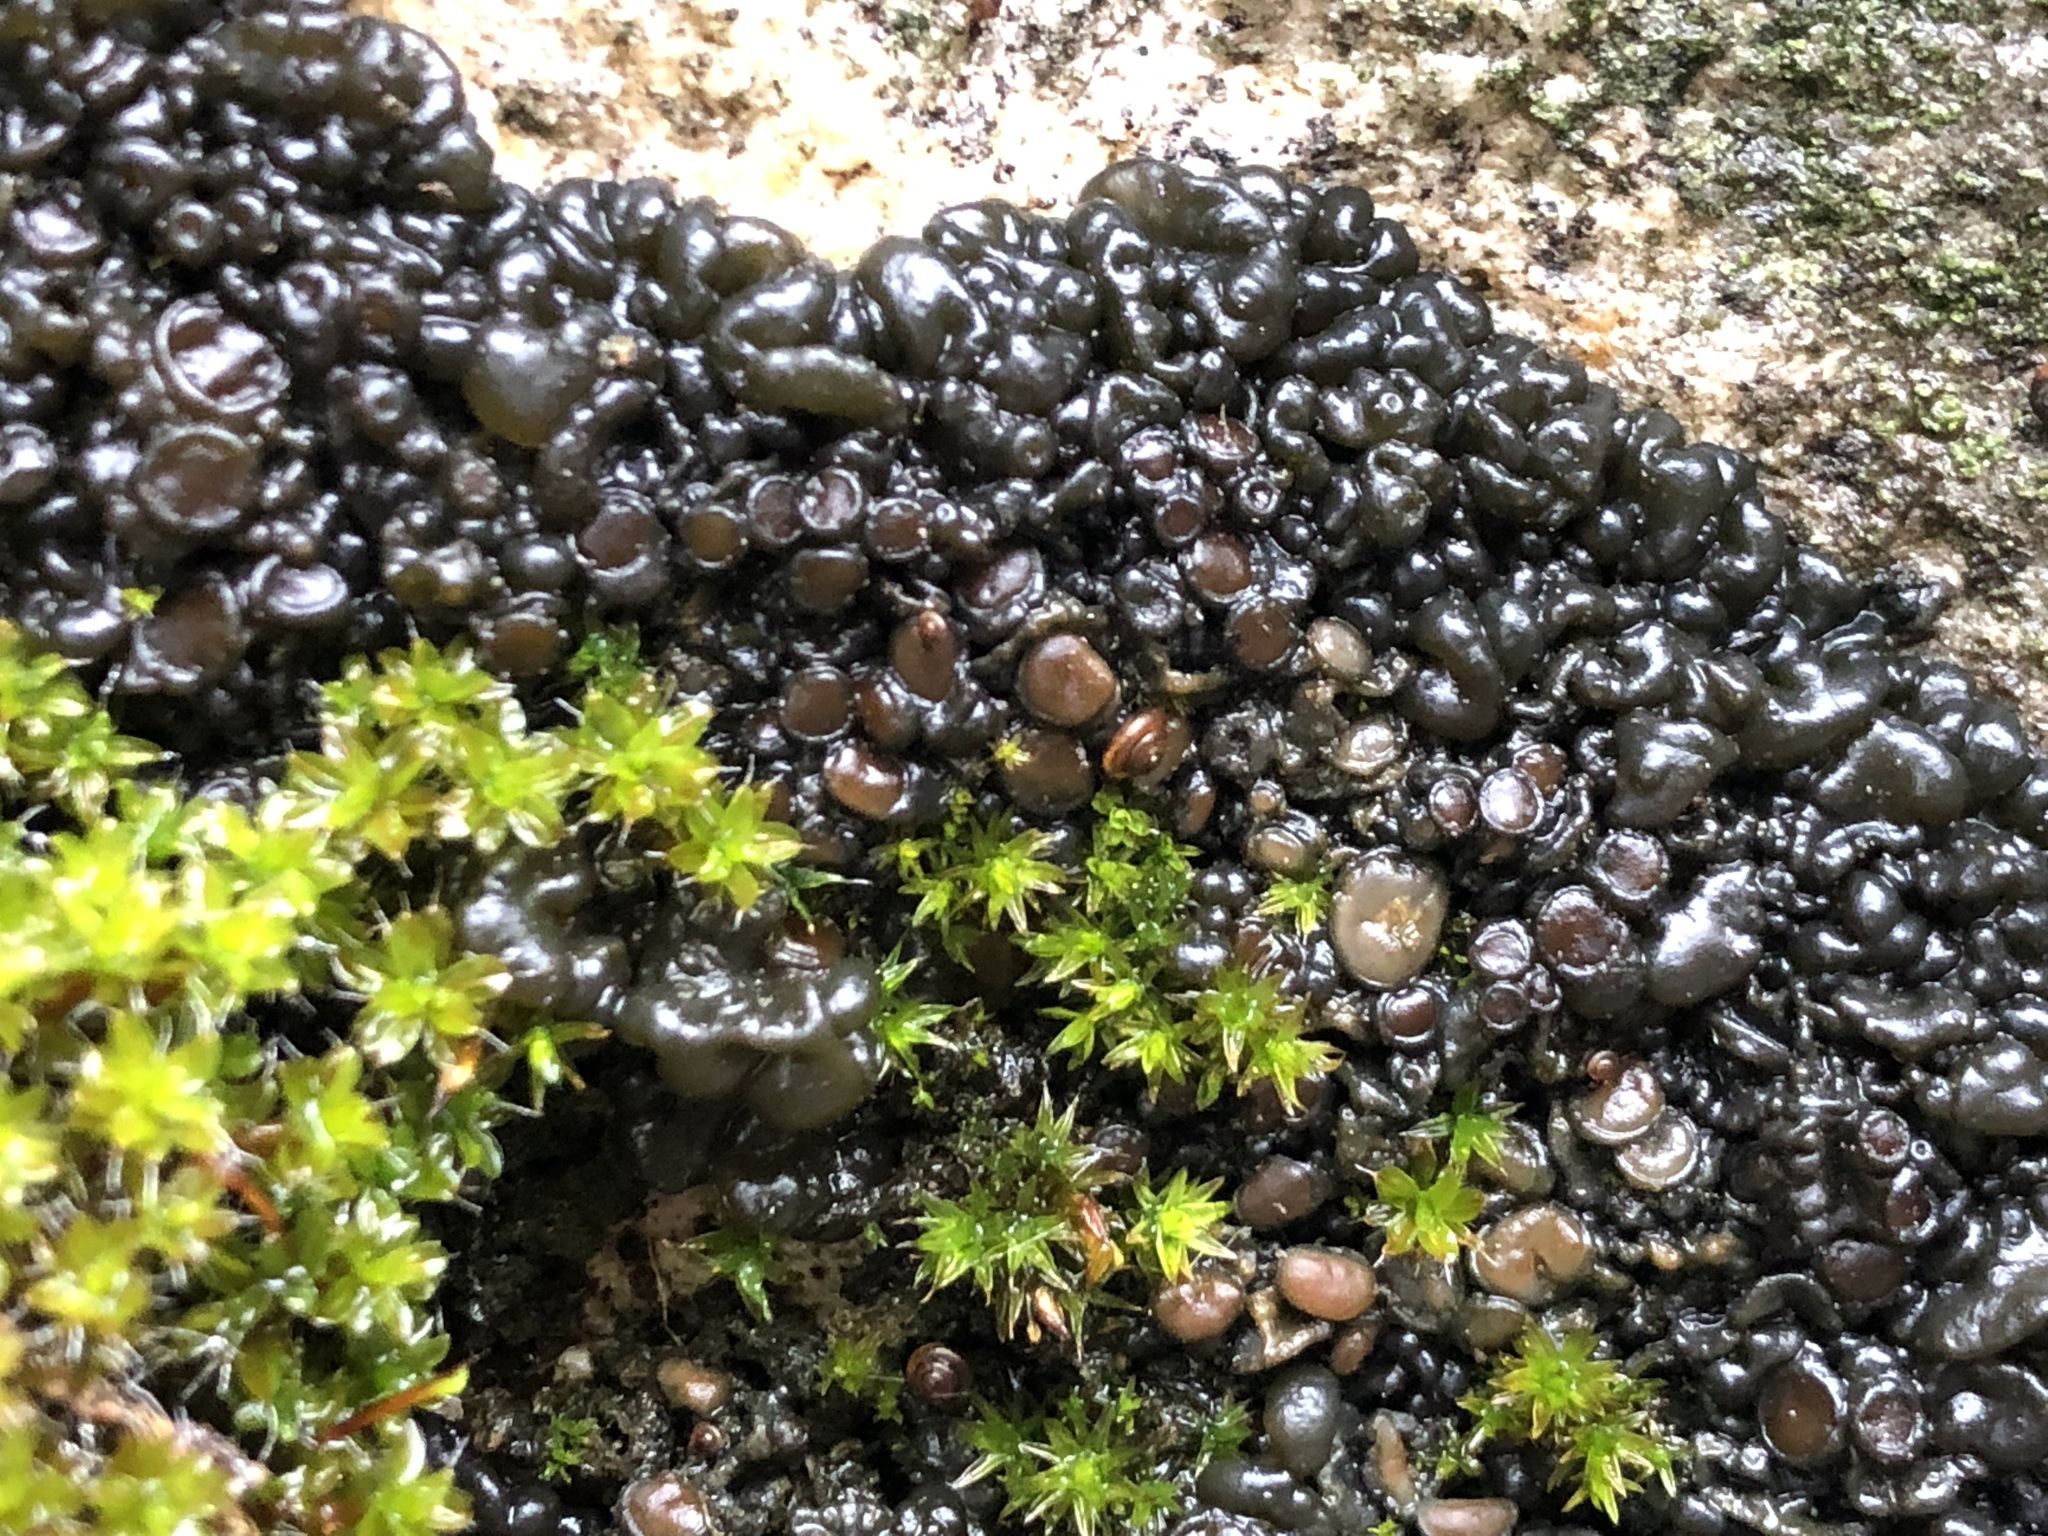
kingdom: Fungi
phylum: Ascomycota
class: Lecanoromycetes
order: Peltigerales
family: Collemataceae
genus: Enchylium
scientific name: Enchylium tenax
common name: Jelly lichen
